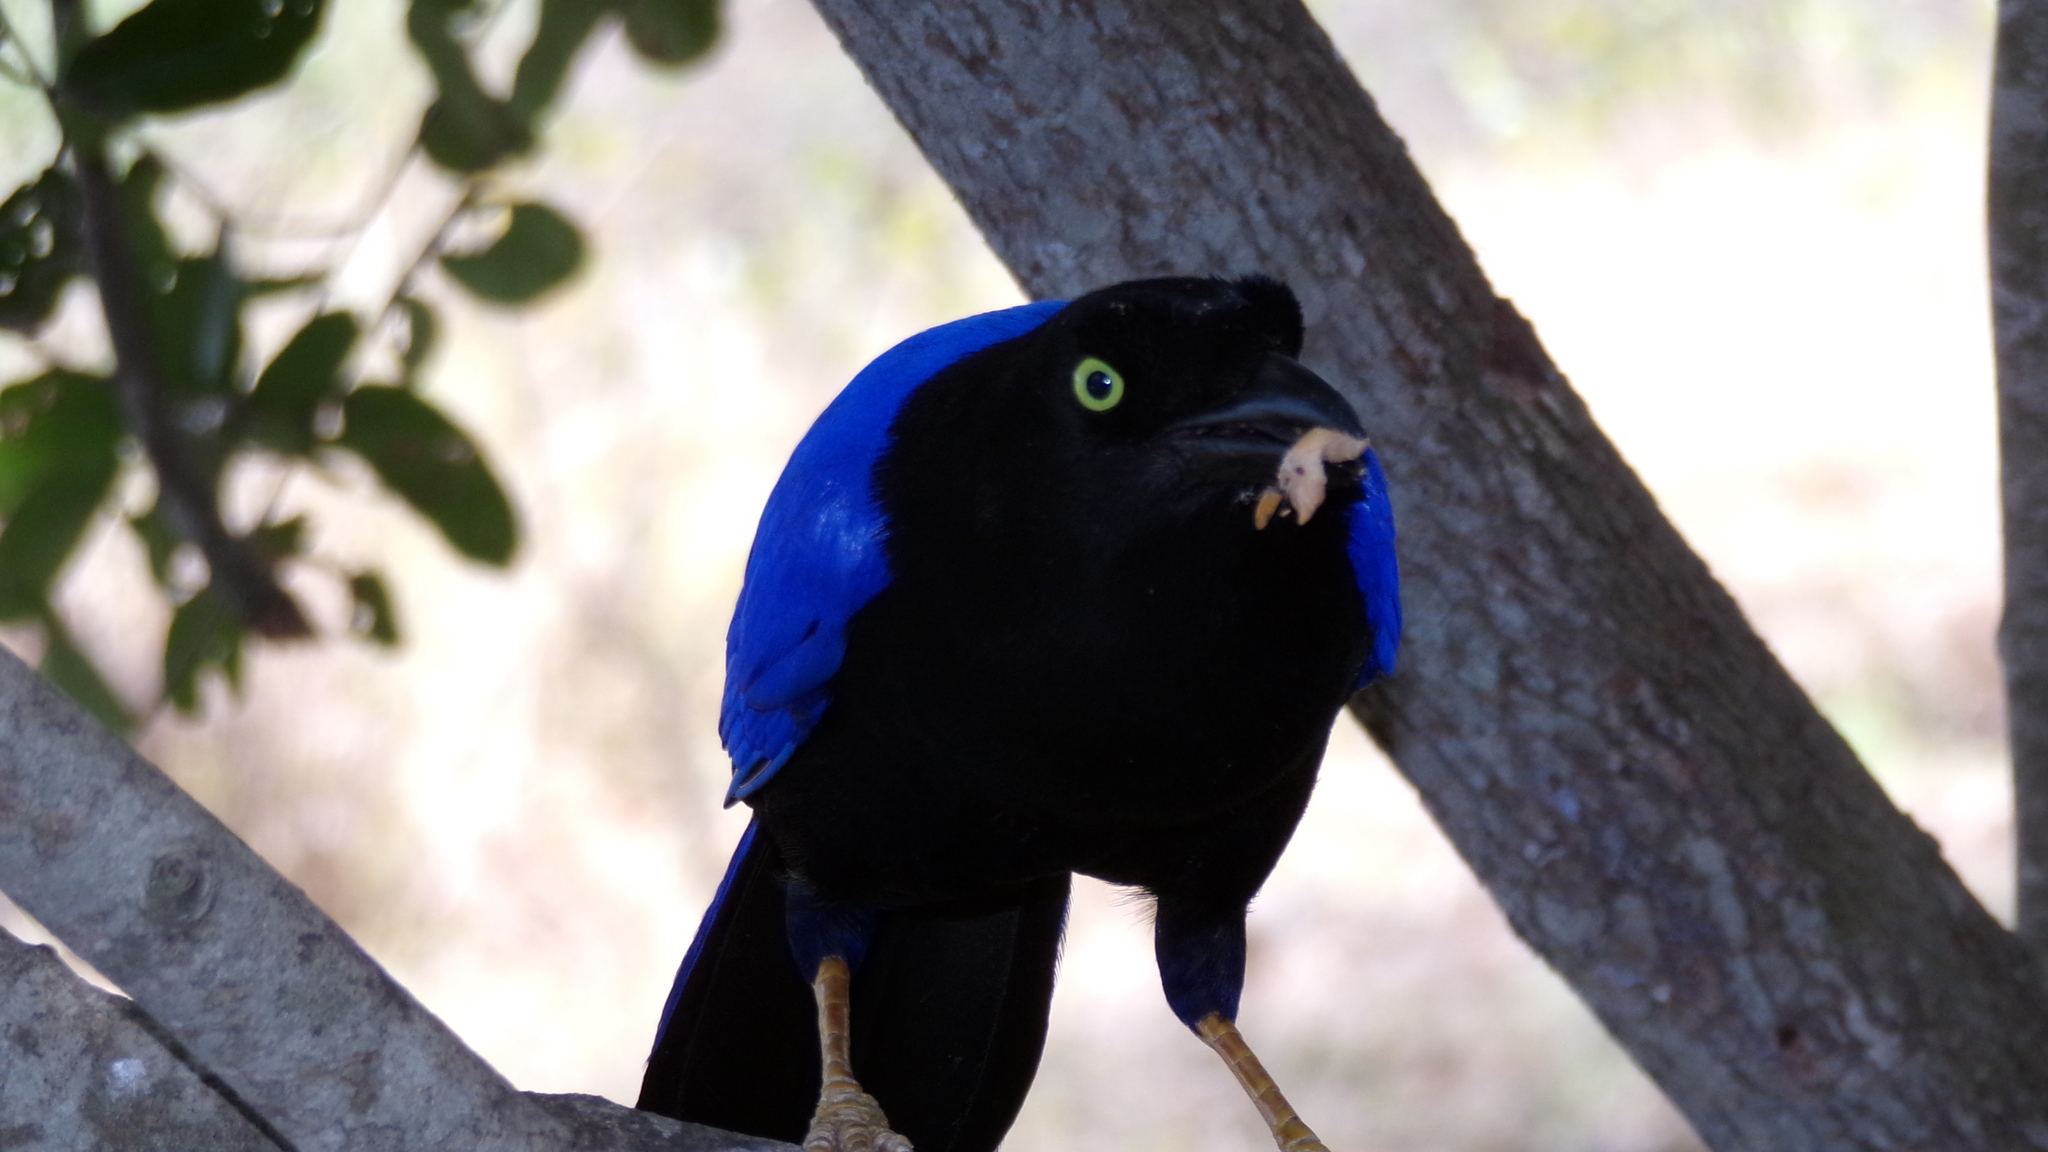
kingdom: Animalia
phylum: Chordata
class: Aves
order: Passeriformes
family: Corvidae
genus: Cyanocorax
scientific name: Cyanocorax beecheii
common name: Purplish-backed jay
